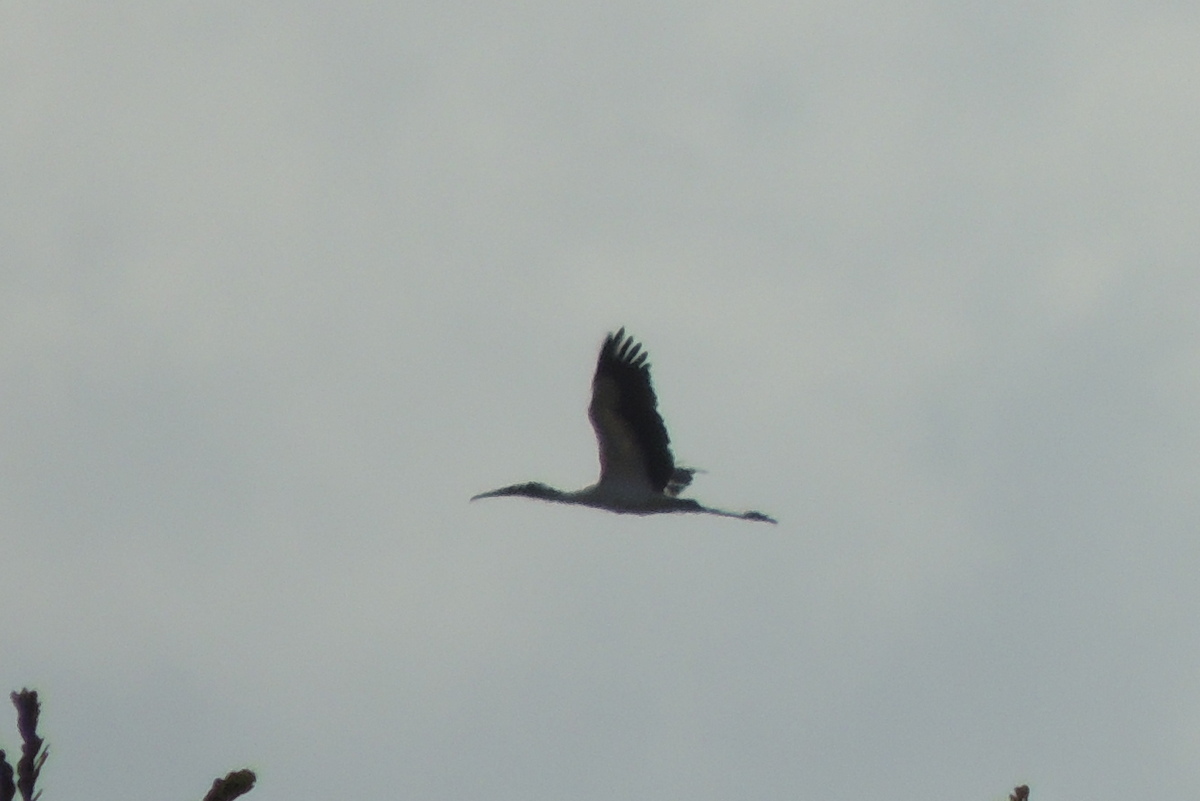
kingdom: Animalia
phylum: Chordata
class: Aves
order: Ciconiiformes
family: Ciconiidae
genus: Mycteria
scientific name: Mycteria americana
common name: Wood stork
